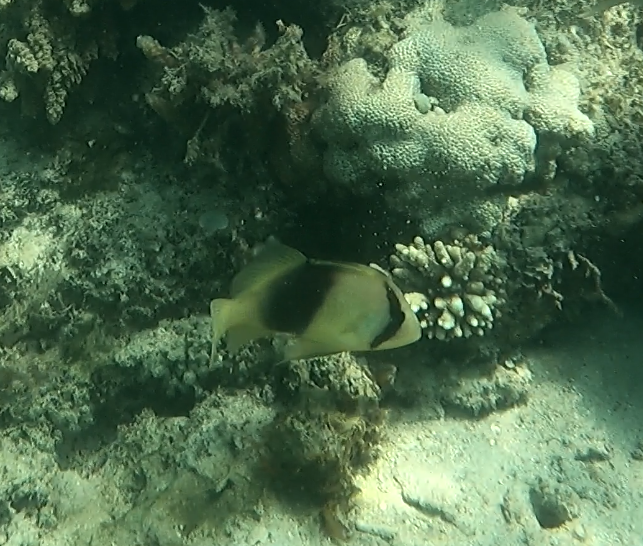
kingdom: Animalia
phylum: Chordata
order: Perciformes
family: Serranidae
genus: Diploprion
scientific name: Diploprion bifasciatum
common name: Barred soapfish
